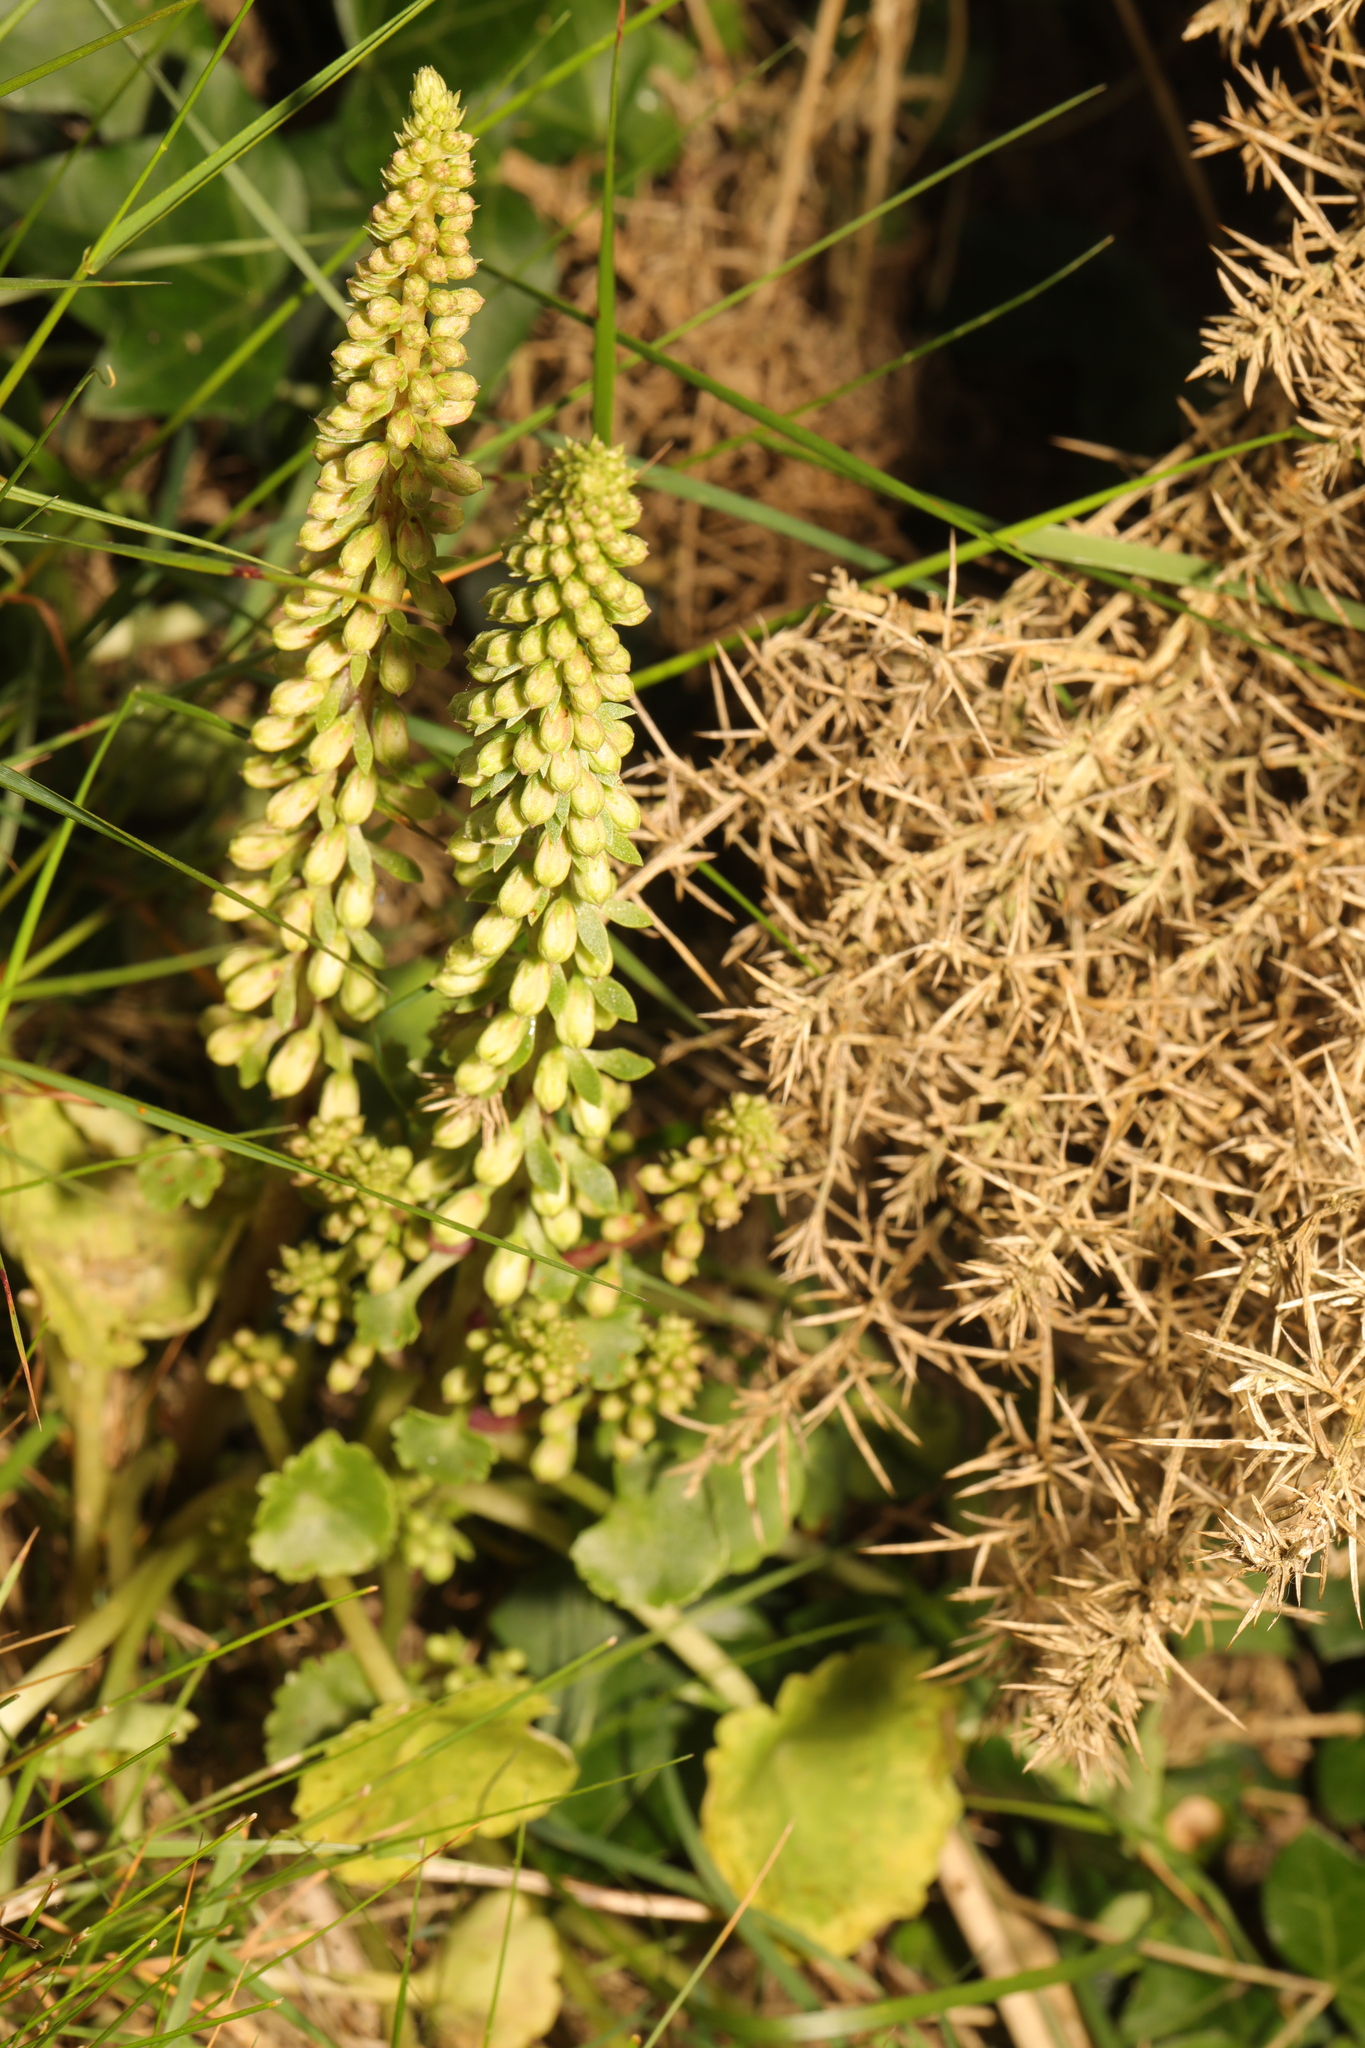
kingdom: Plantae
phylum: Tracheophyta
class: Magnoliopsida
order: Saxifragales
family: Crassulaceae
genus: Umbilicus
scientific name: Umbilicus rupestris
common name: Navelwort
